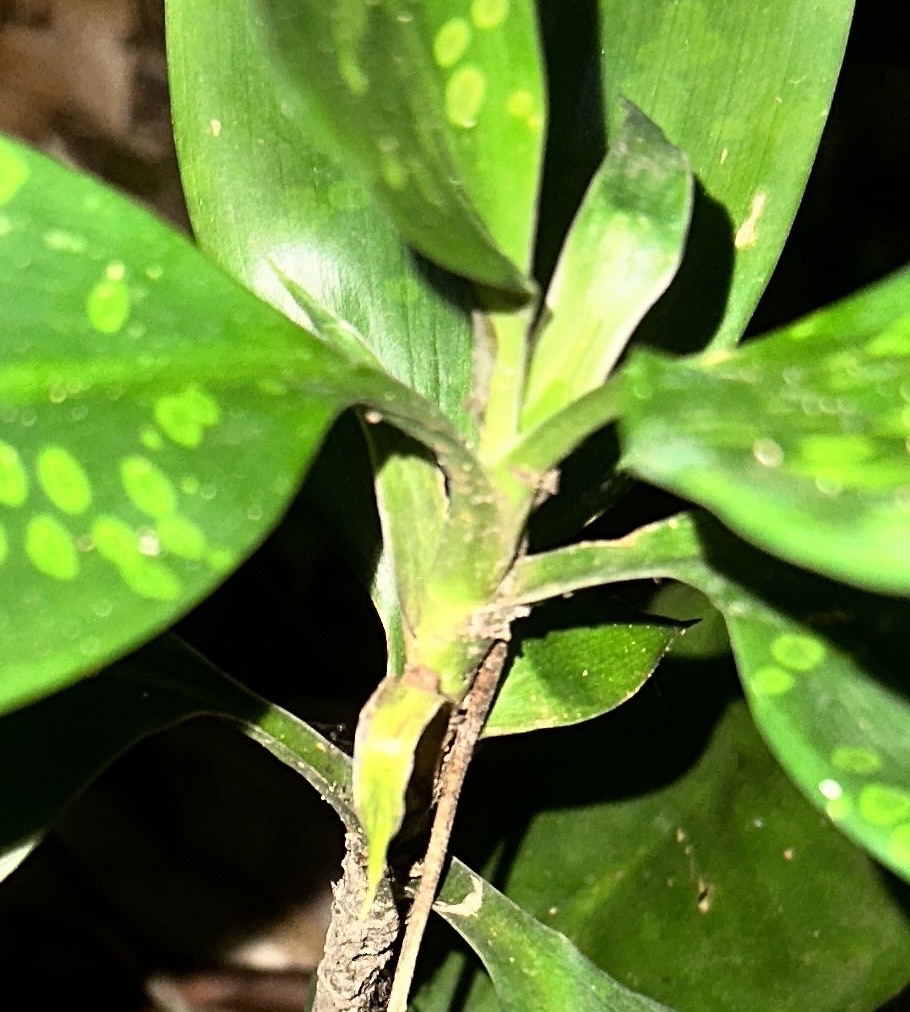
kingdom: Plantae
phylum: Tracheophyta
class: Liliopsida
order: Asparagales
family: Asparagaceae
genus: Dracaena
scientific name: Dracaena cantleyi
